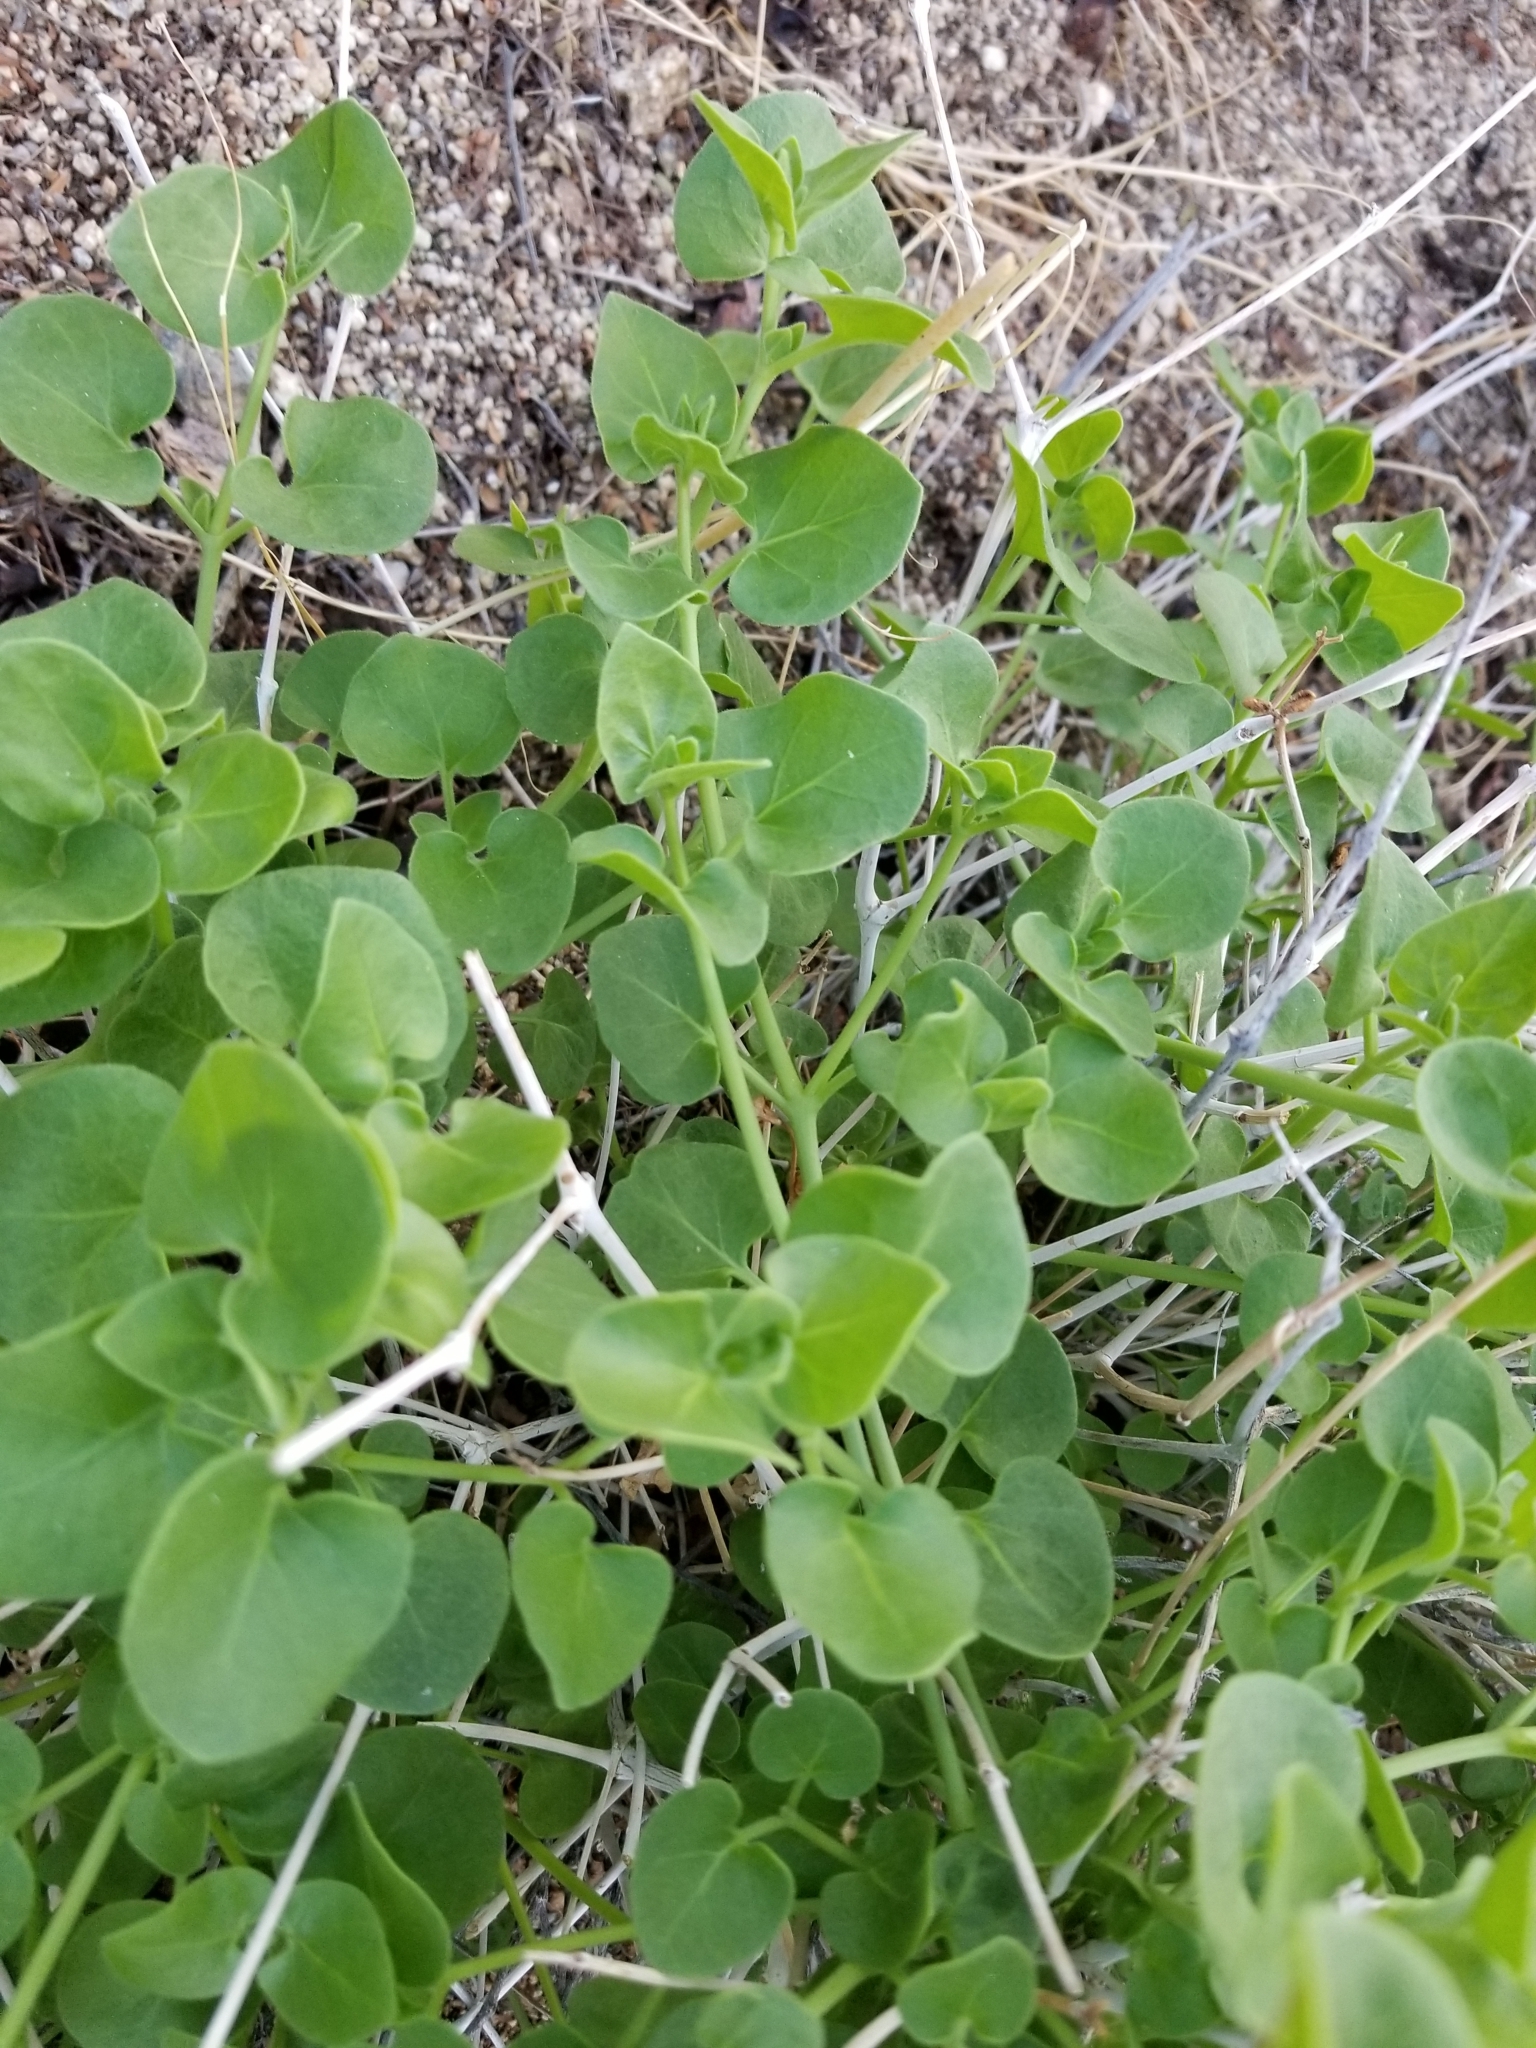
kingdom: Plantae
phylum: Tracheophyta
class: Magnoliopsida
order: Caryophyllales
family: Nyctaginaceae
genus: Mirabilis
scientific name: Mirabilis laevis
